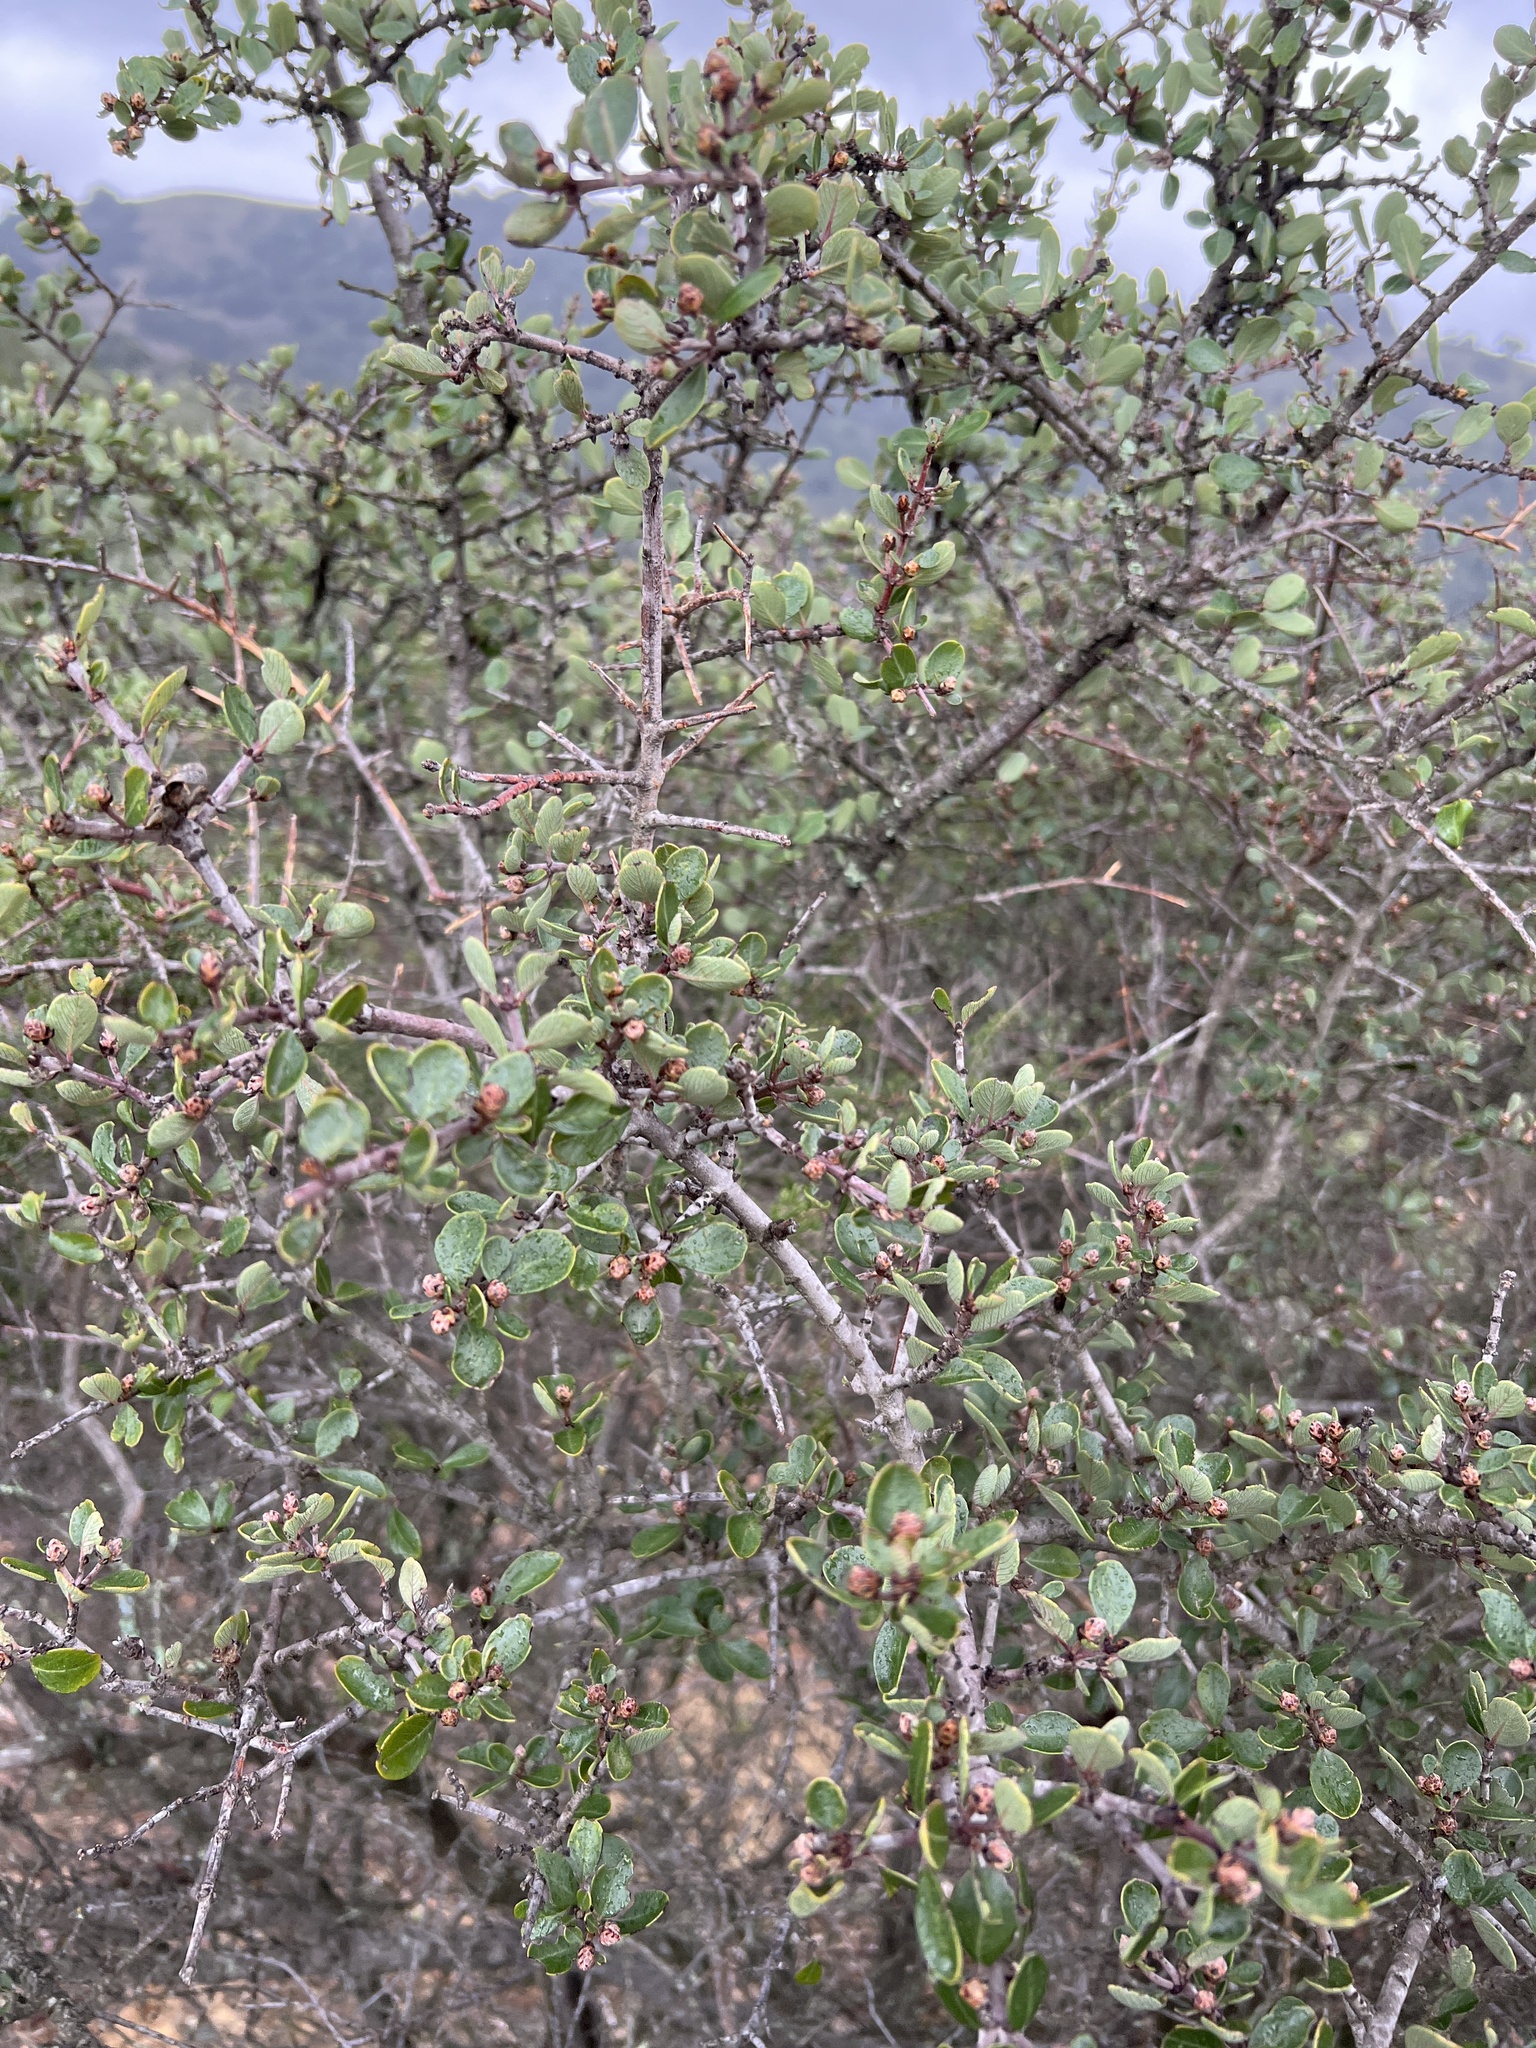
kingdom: Plantae
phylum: Tracheophyta
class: Magnoliopsida
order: Rosales
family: Rhamnaceae
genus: Ceanothus
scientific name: Ceanothus cuneatus
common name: Cuneate ceanothus
